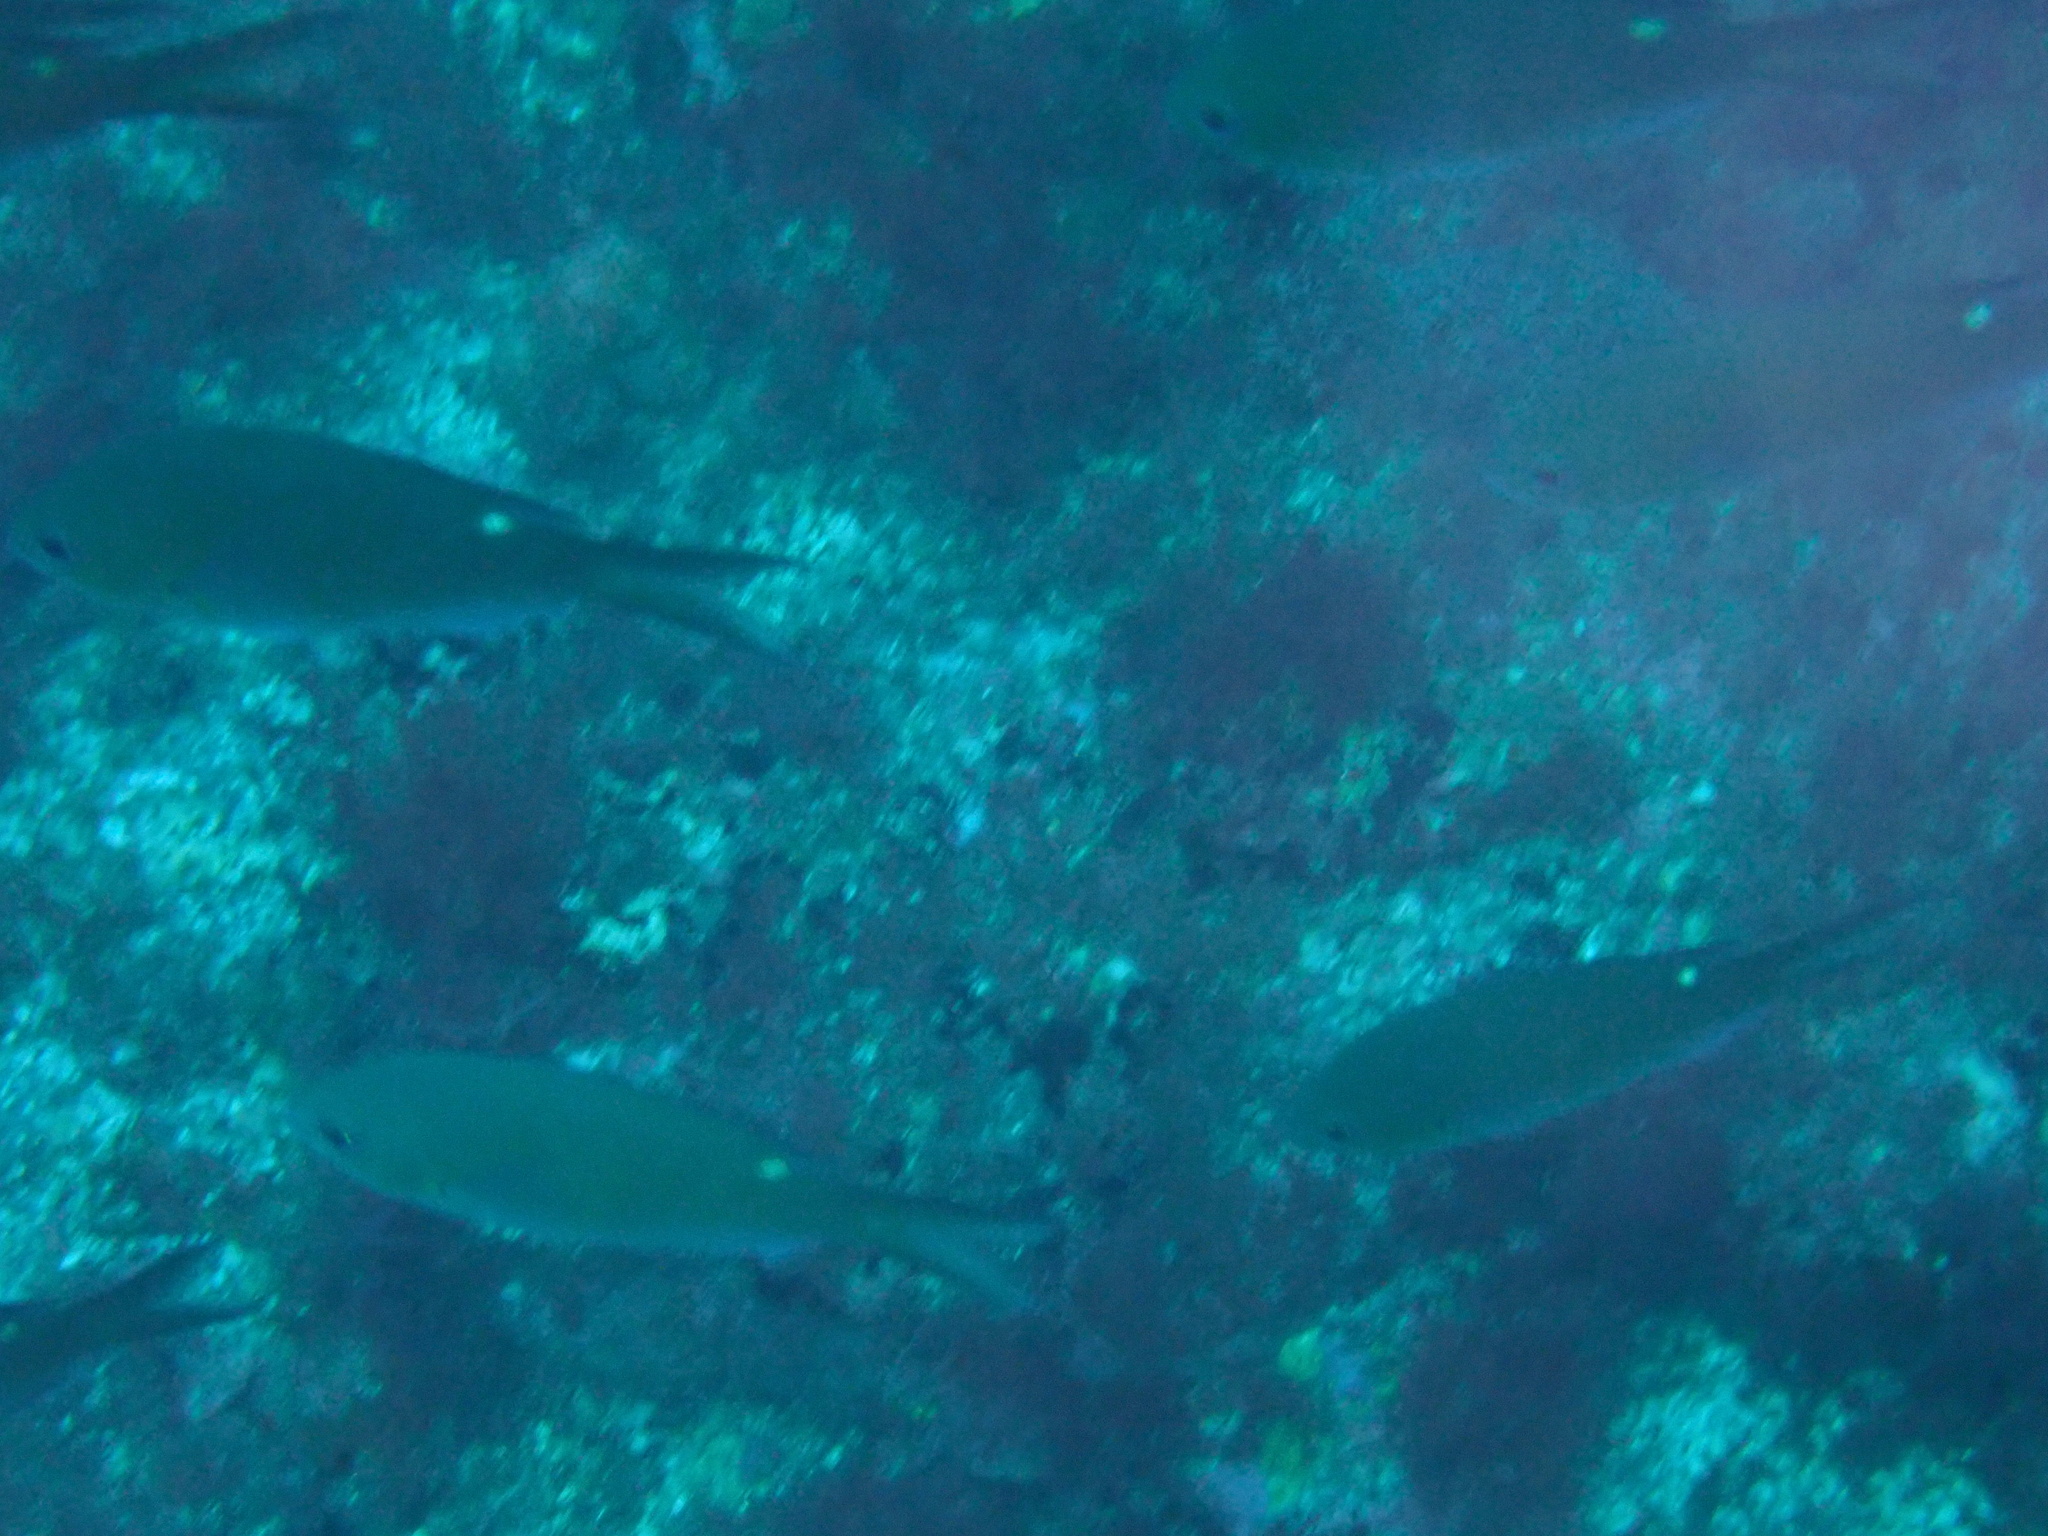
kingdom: Animalia
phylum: Chordata
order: Perciformes
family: Pomacentridae
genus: Chromis
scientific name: Chromis multilineata
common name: Brown chromis
